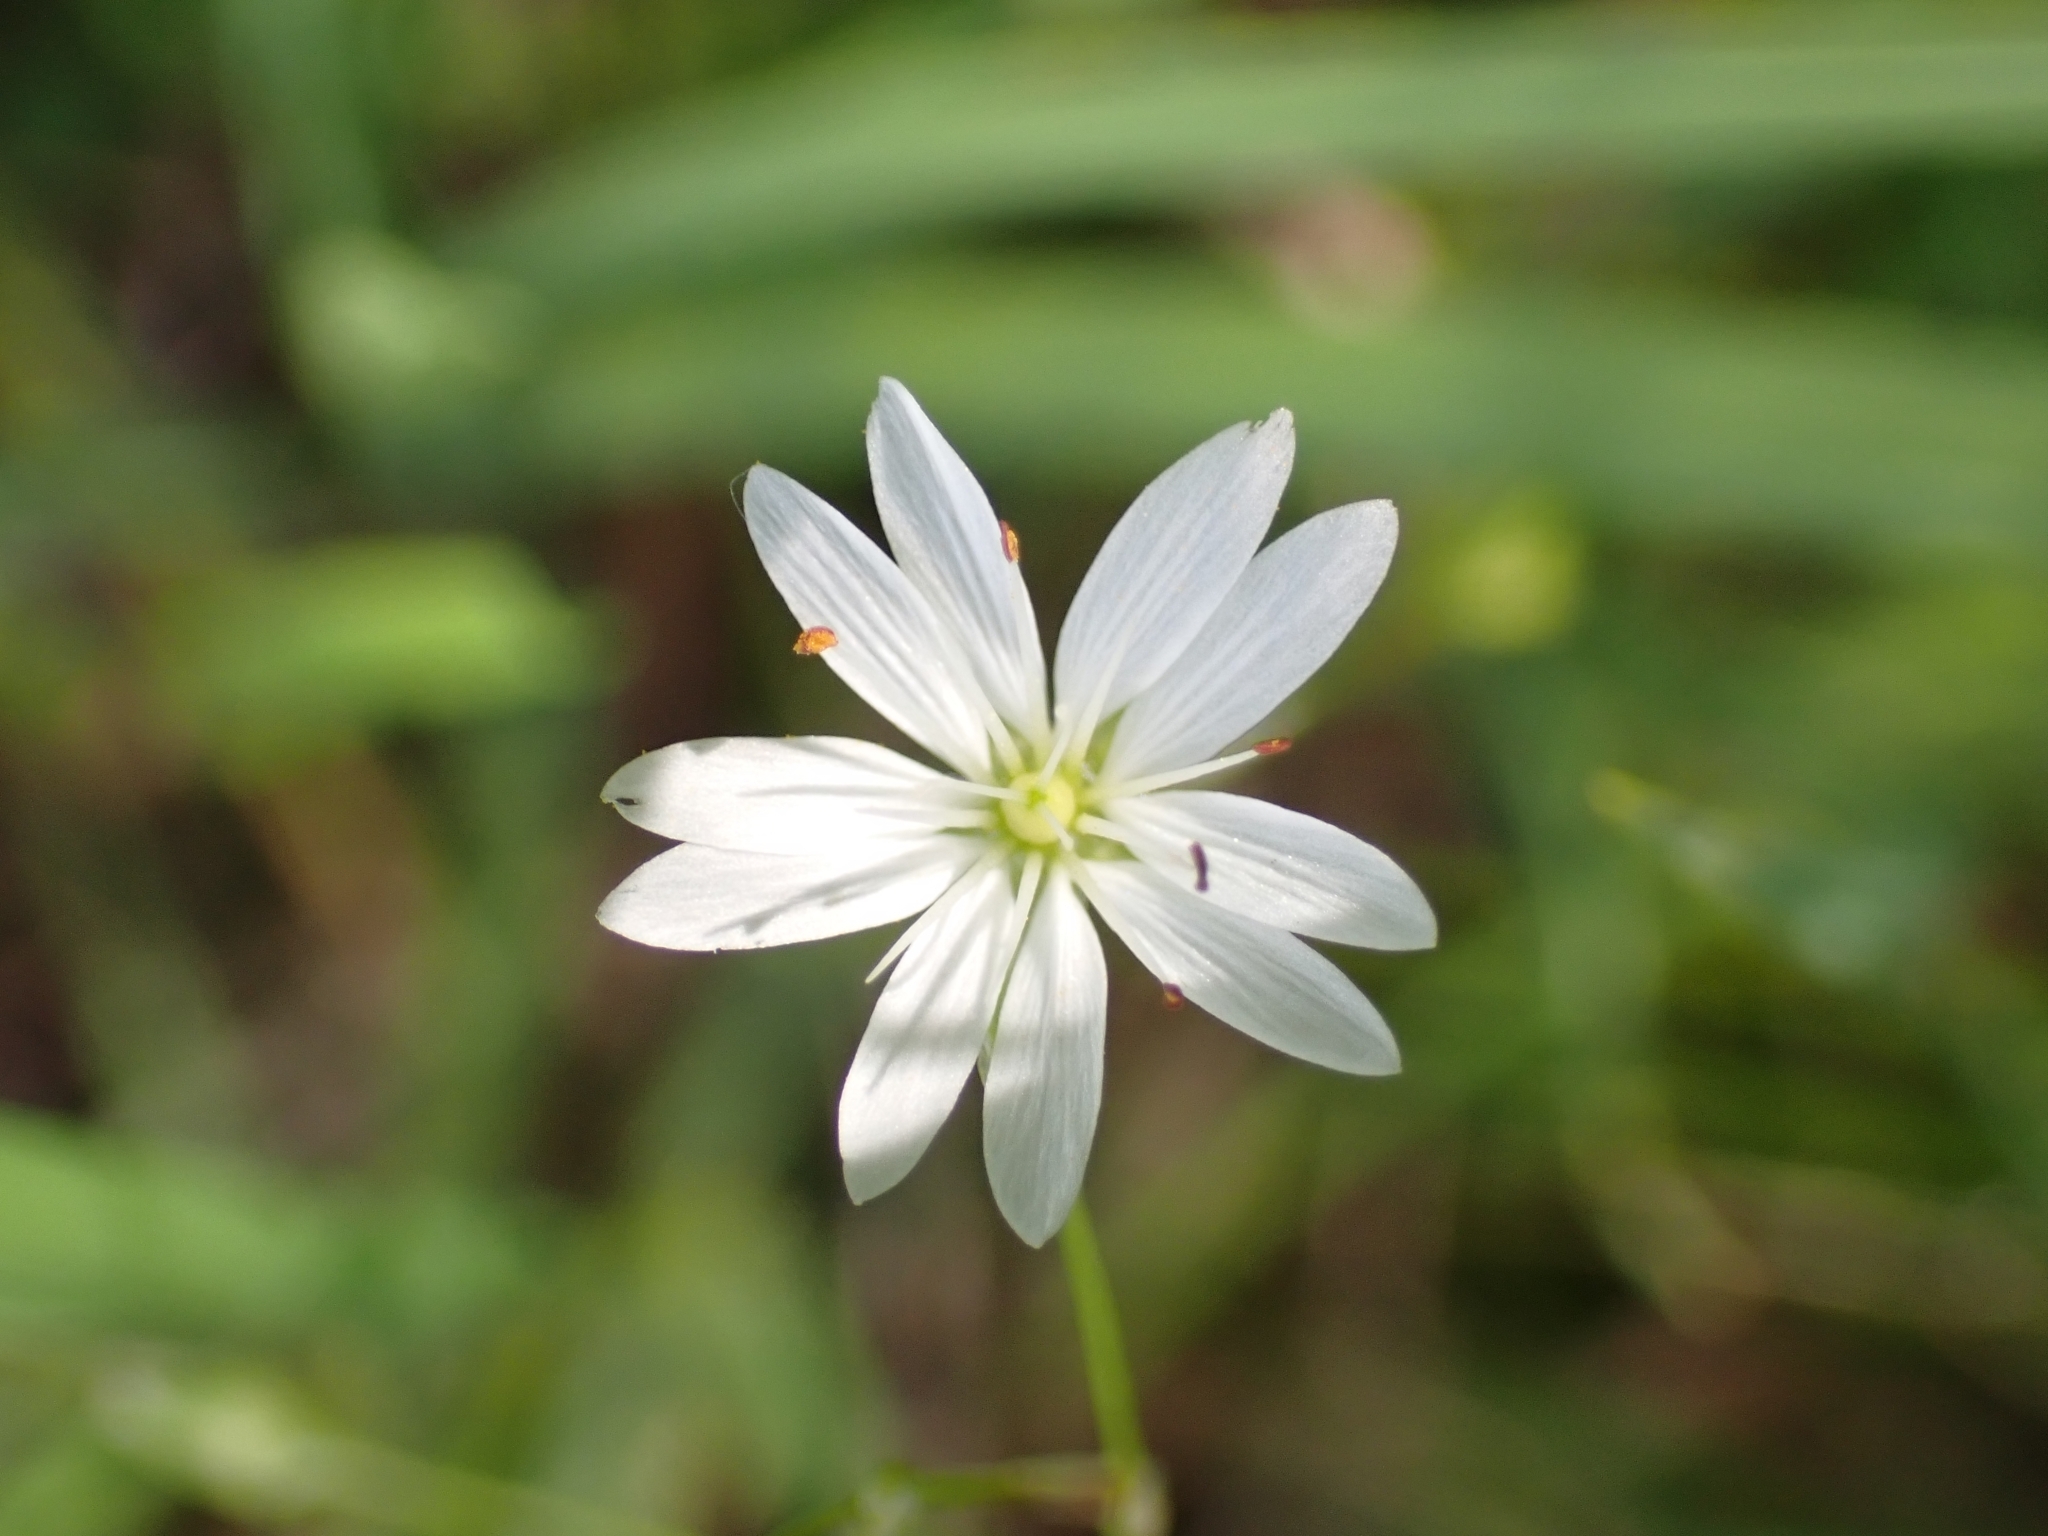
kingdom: Plantae
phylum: Tracheophyta
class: Magnoliopsida
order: Caryophyllales
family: Caryophyllaceae
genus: Stellaria
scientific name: Stellaria graminea
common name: Grass-like starwort
